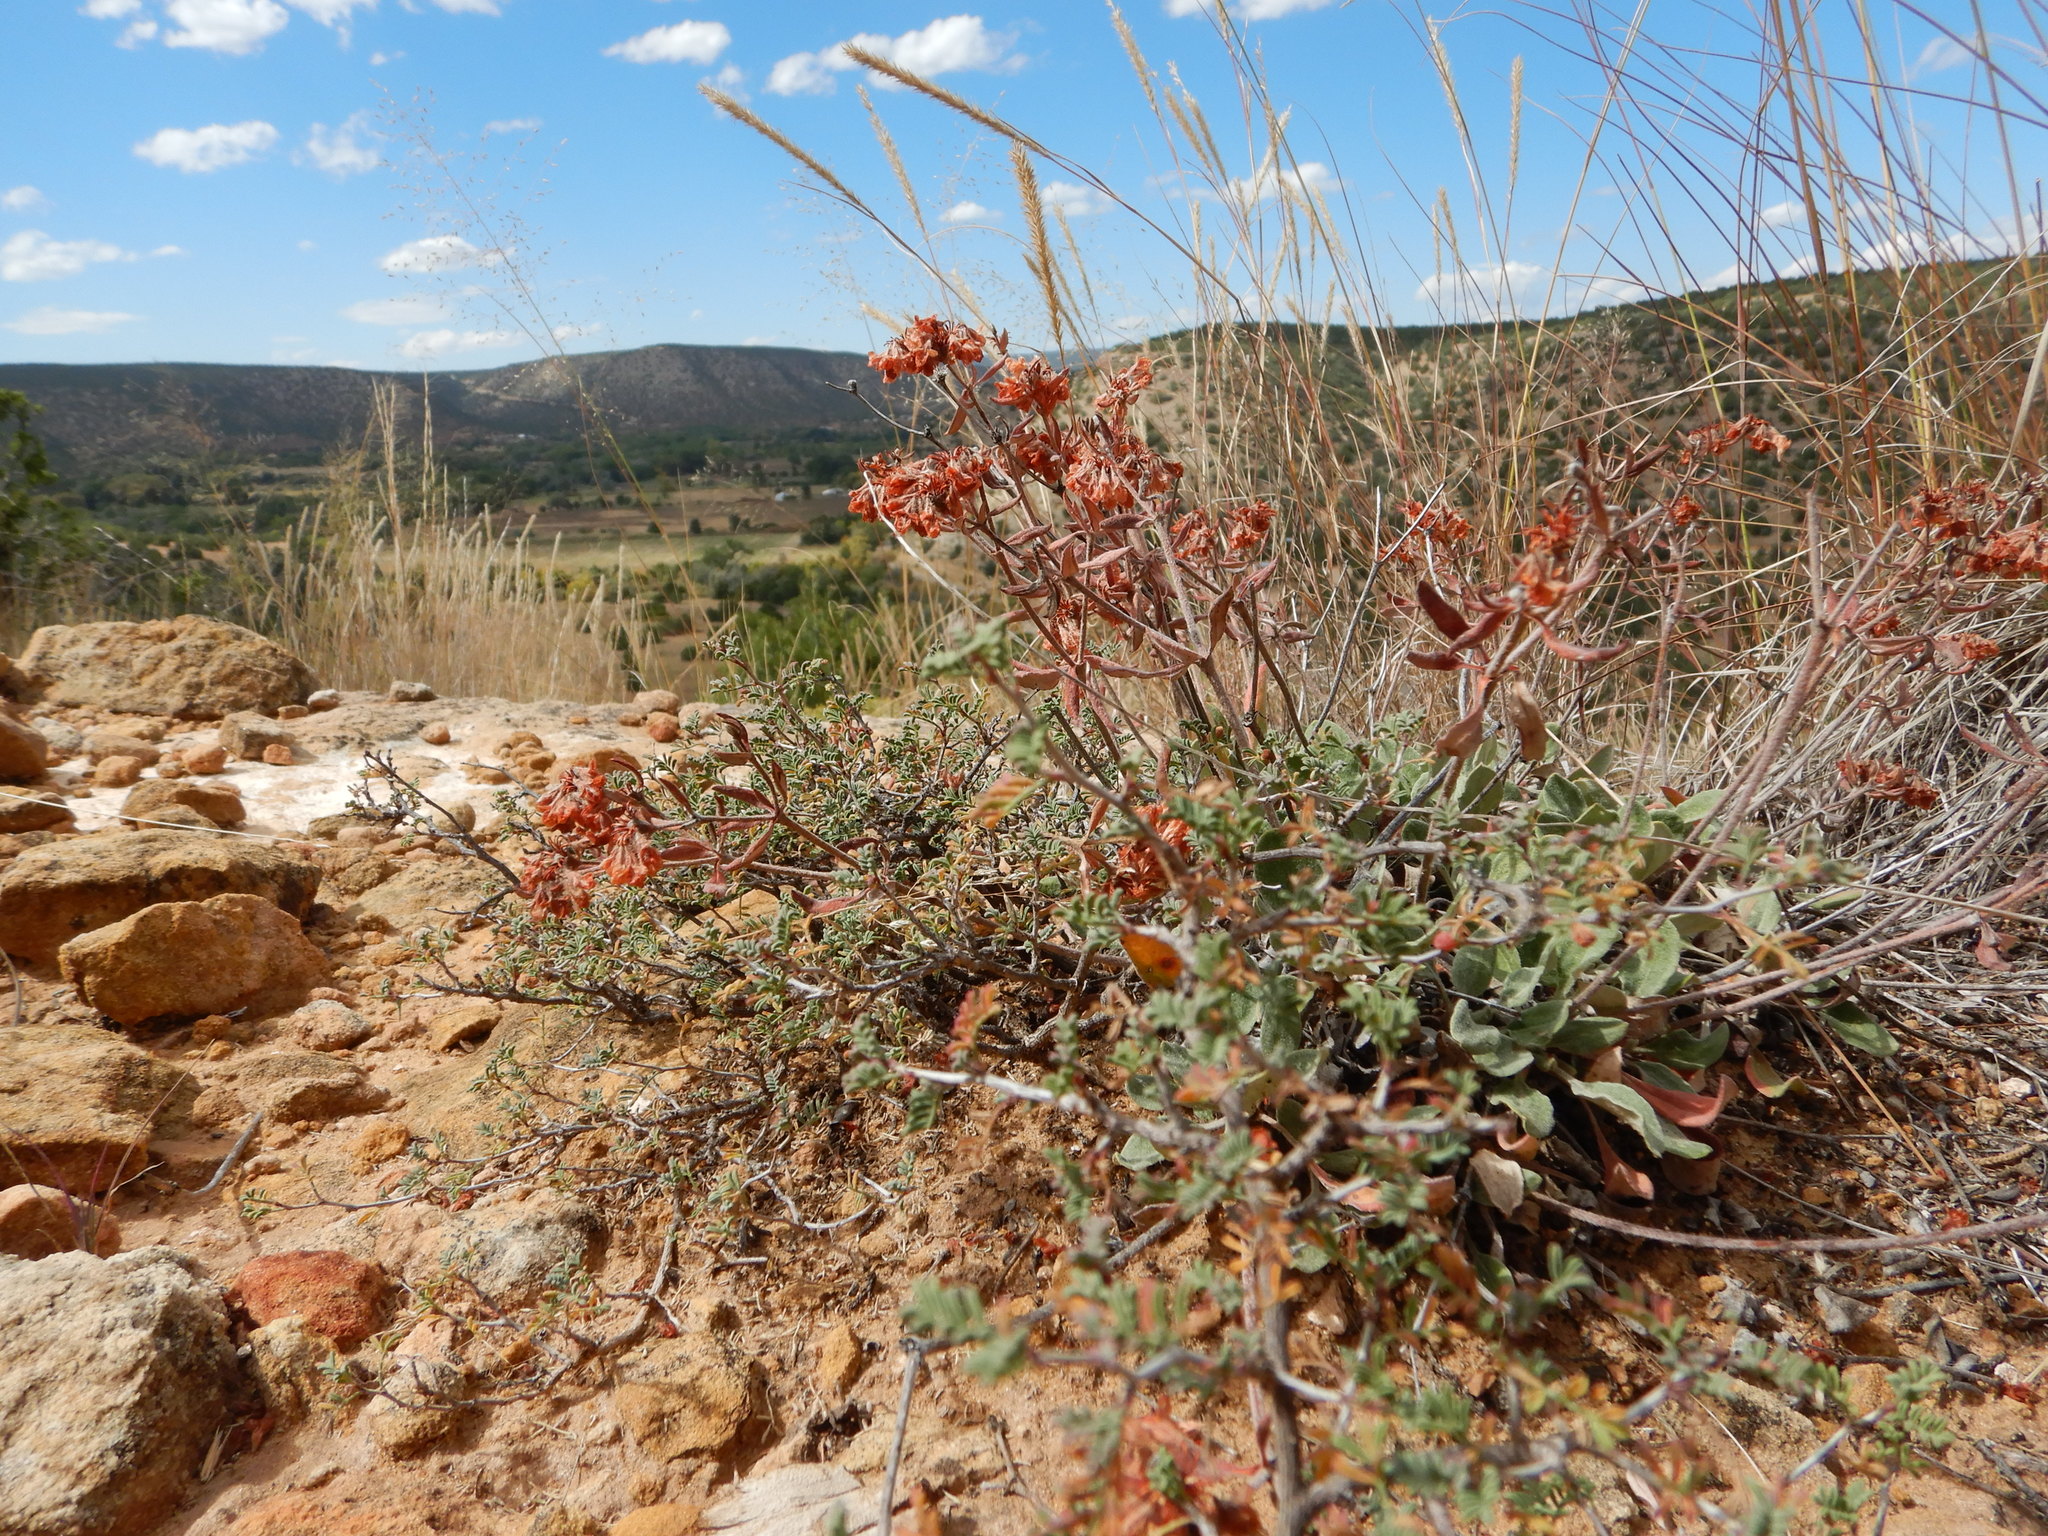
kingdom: Plantae
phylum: Tracheophyta
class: Magnoliopsida
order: Caryophyllales
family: Polygonaceae
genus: Eriogonum
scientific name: Eriogonum jamesii
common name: Antelope-sage
